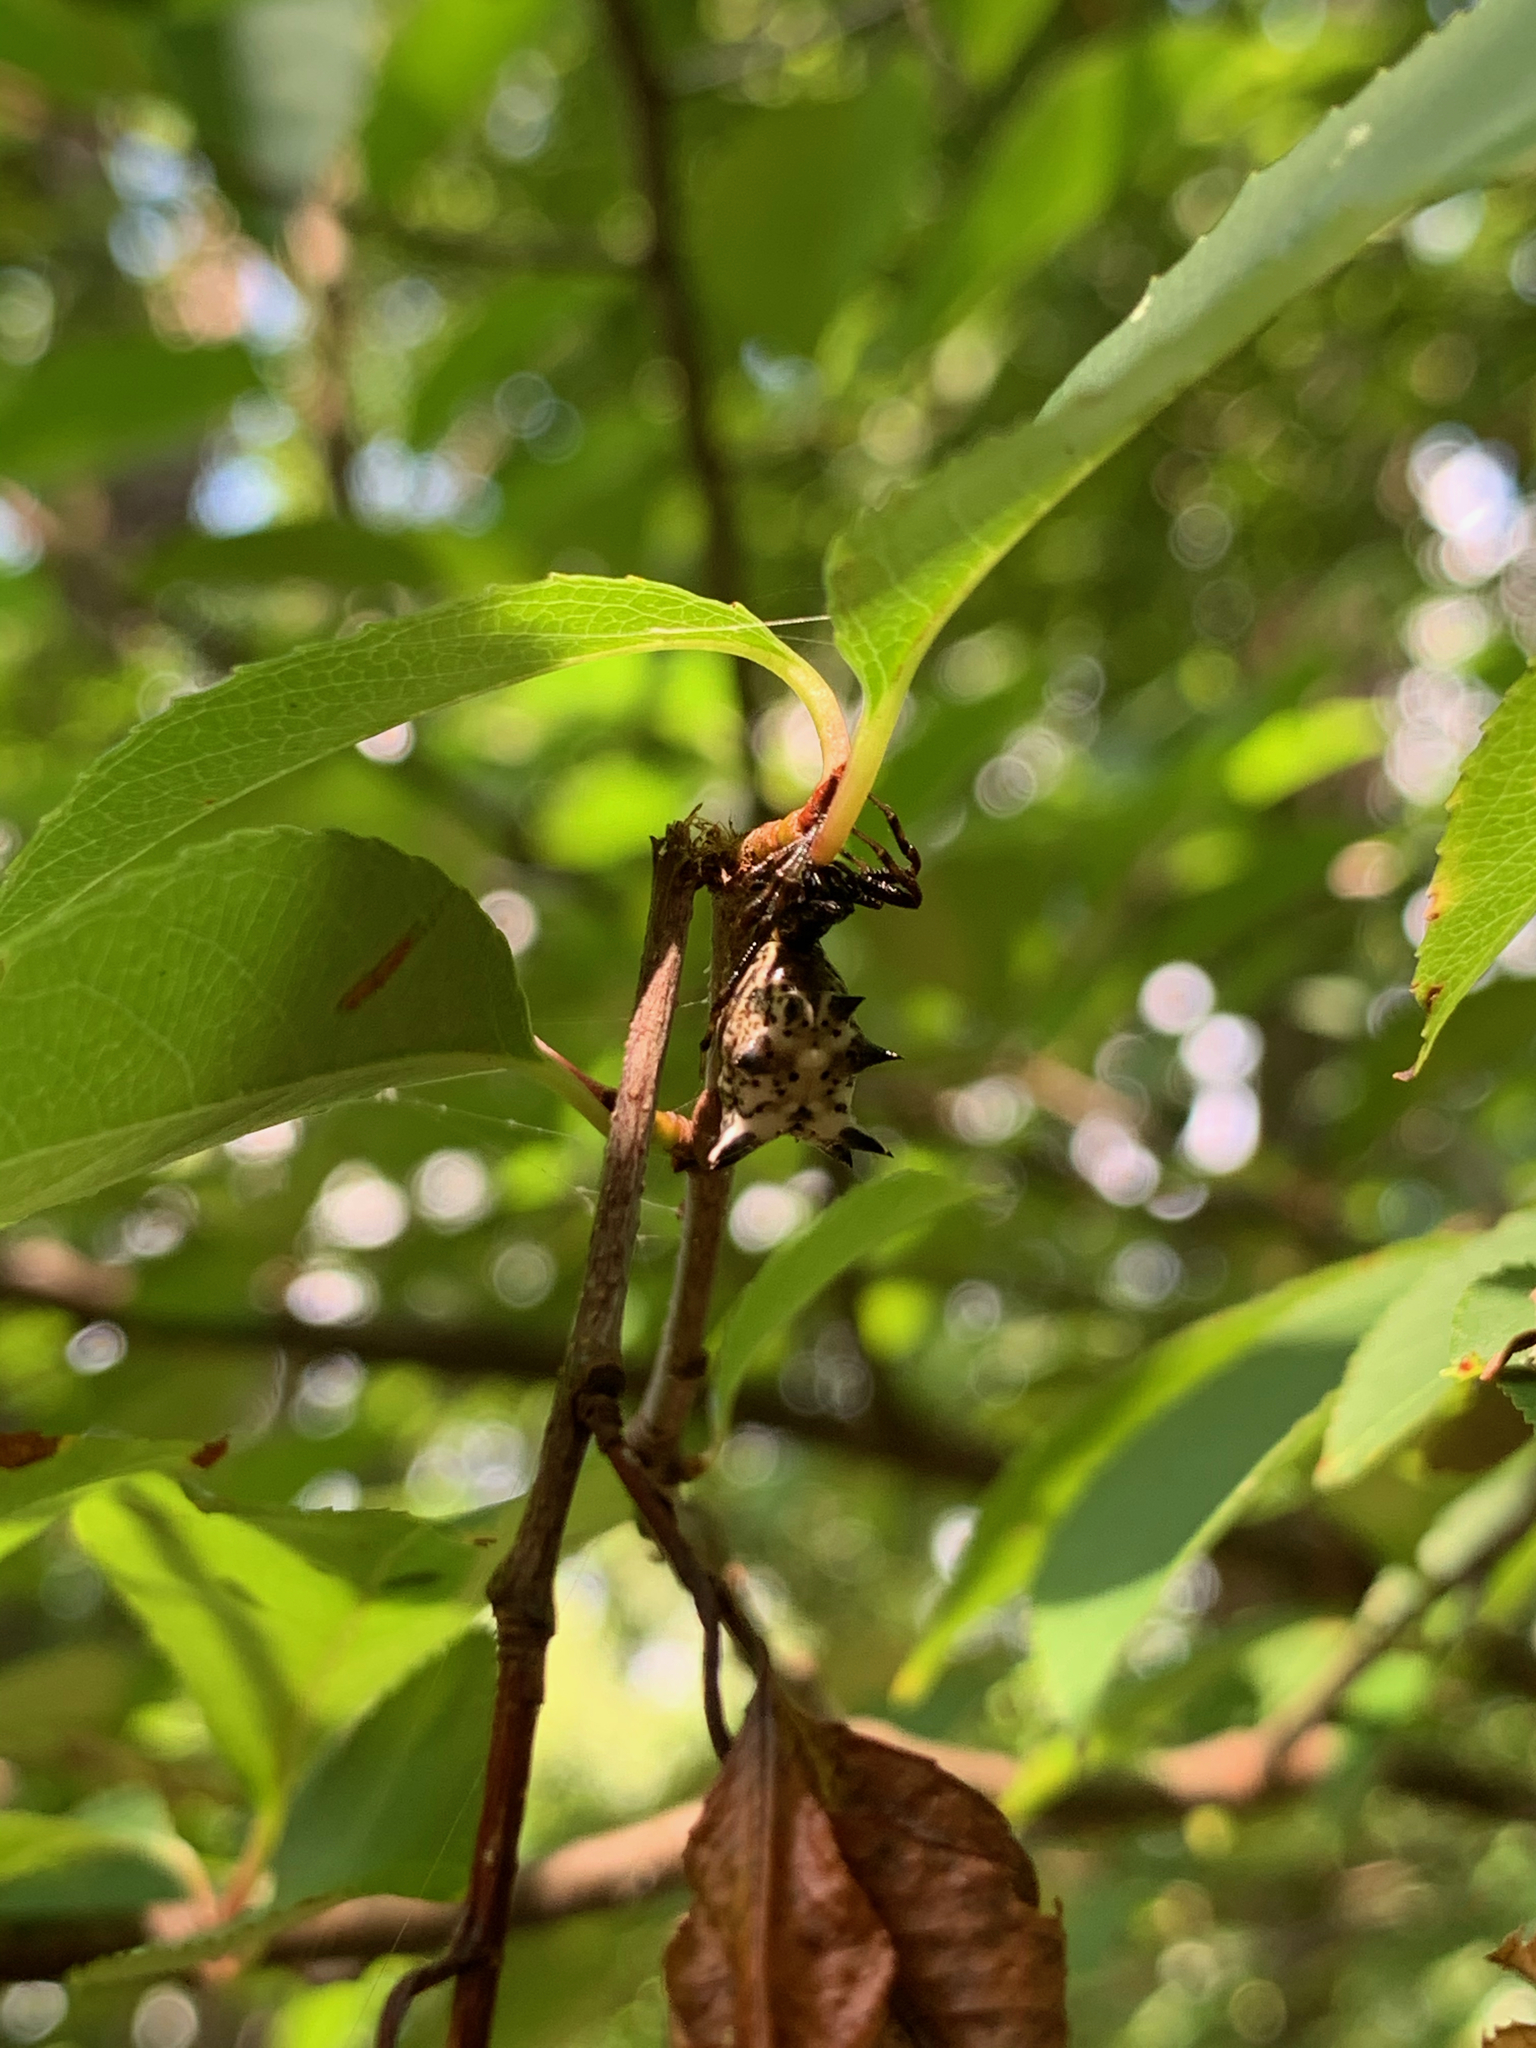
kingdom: Animalia
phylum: Arthropoda
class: Arachnida
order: Araneae
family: Araneidae
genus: Micrathena
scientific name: Micrathena gracilis
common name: Orb weavers
